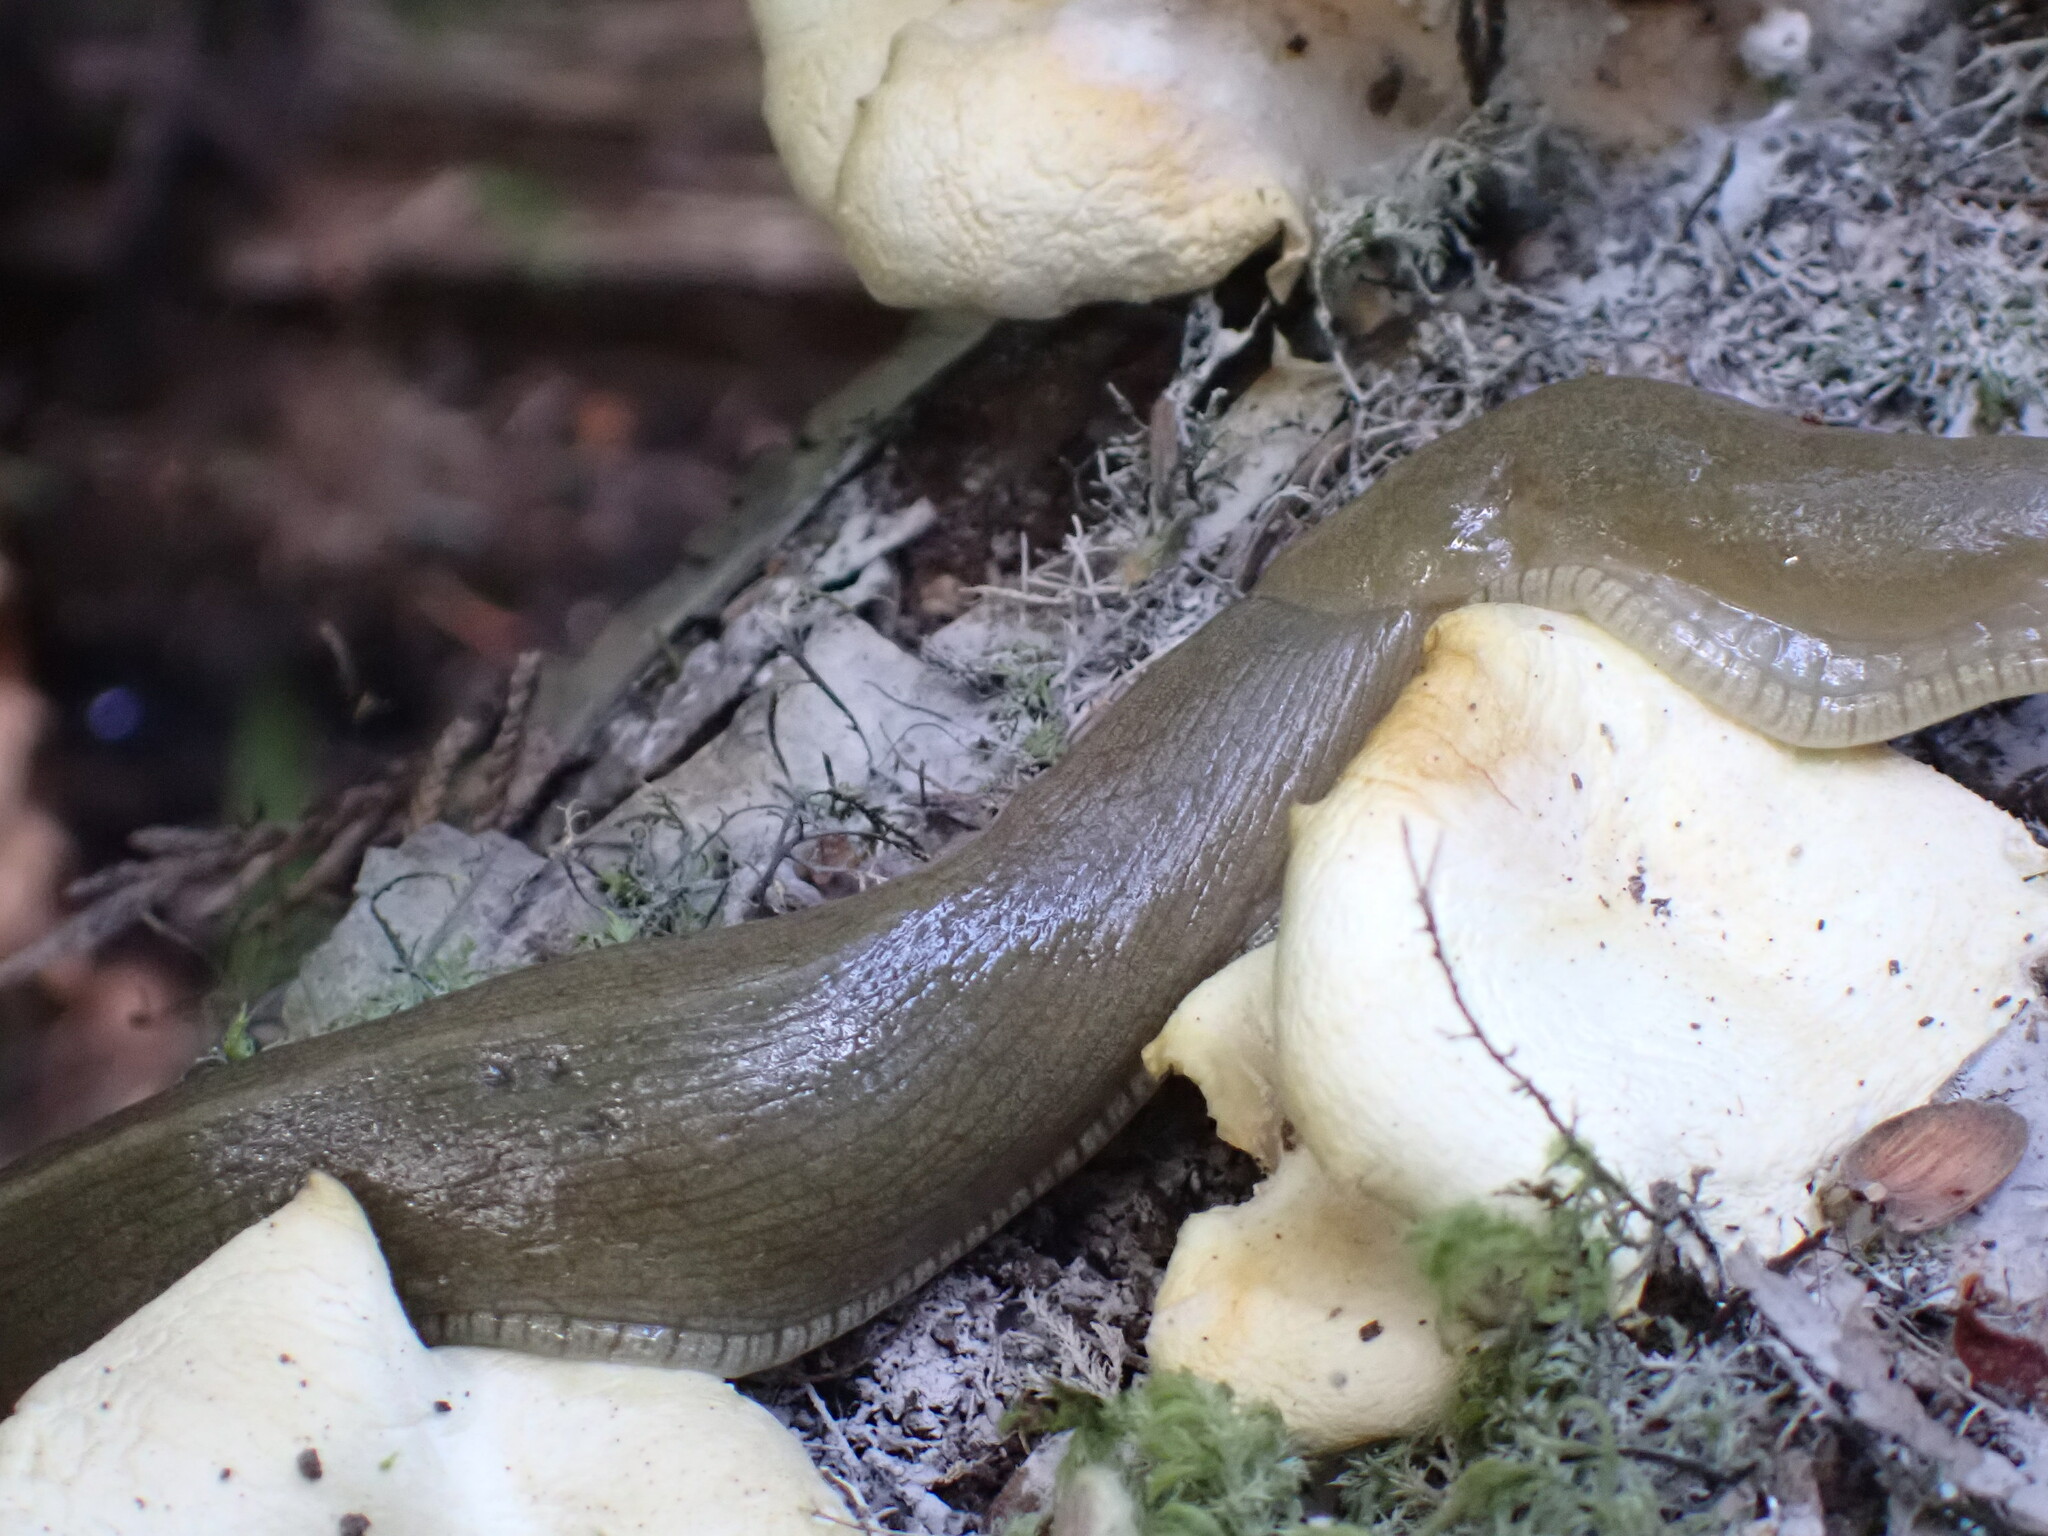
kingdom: Animalia
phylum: Mollusca
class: Gastropoda
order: Stylommatophora
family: Ariolimacidae
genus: Ariolimax
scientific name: Ariolimax columbianus
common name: Pacific banana slug
